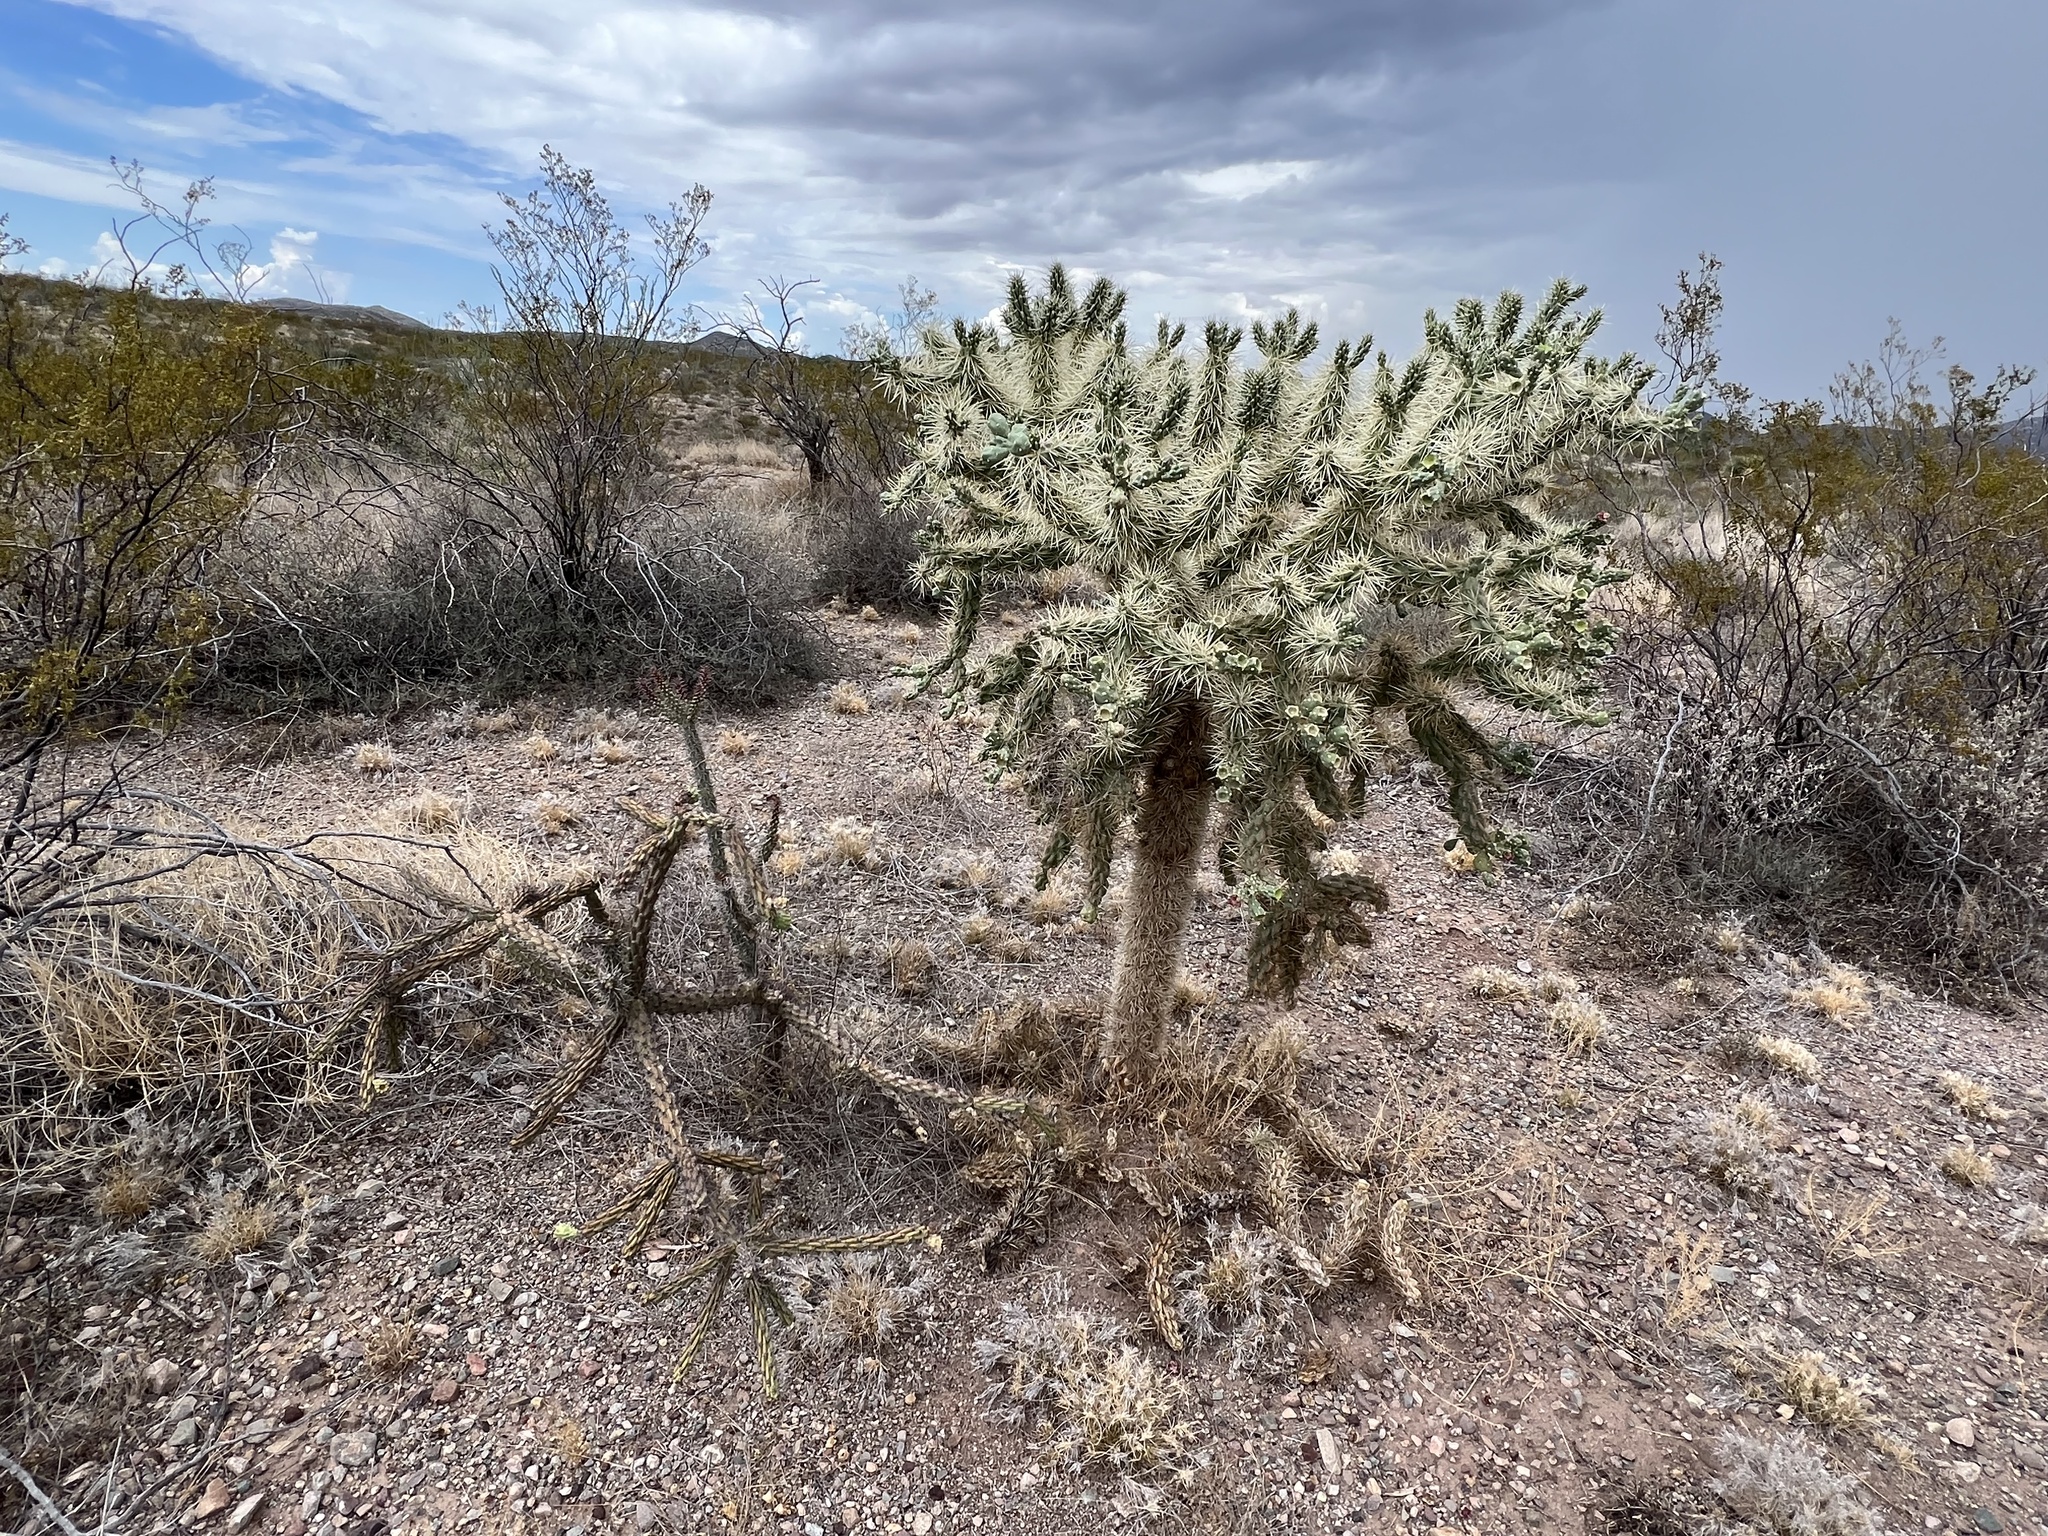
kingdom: Plantae
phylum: Tracheophyta
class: Magnoliopsida
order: Caryophyllales
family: Cactaceae
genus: Echinocereus
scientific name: Echinocereus fasciculatus
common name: Bundle hedgehog
